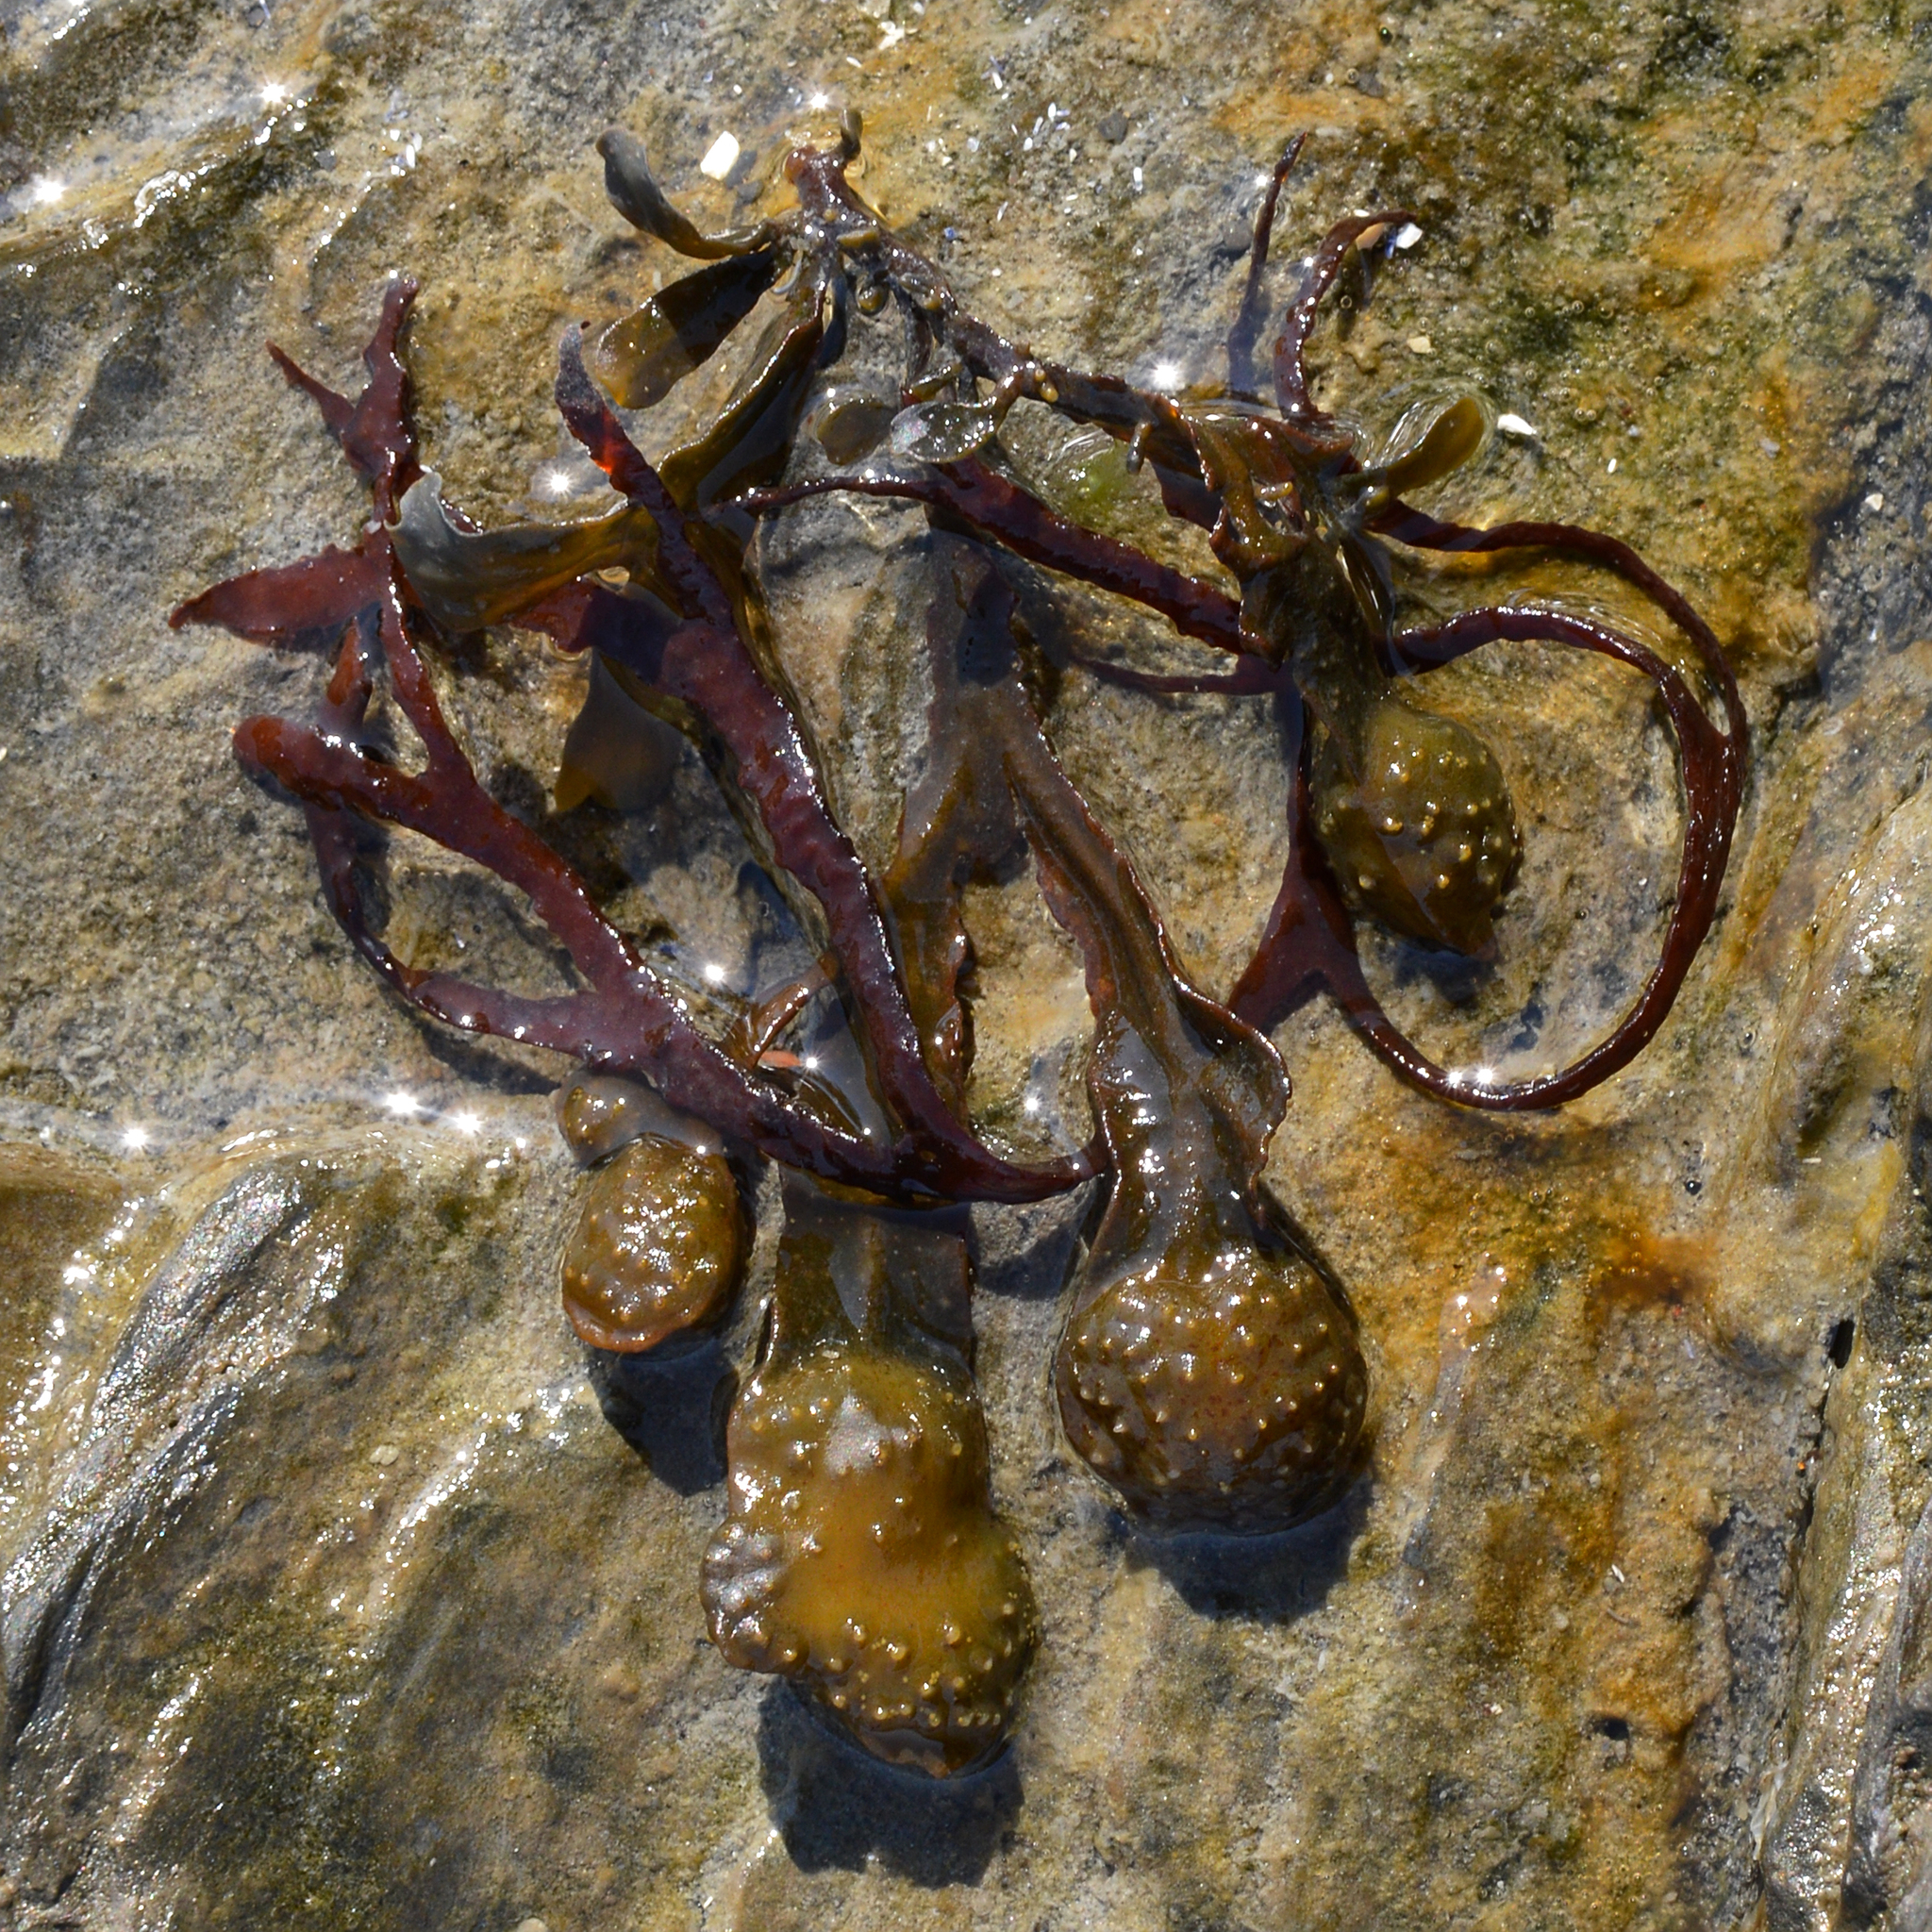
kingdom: Chromista
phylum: Ochrophyta
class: Phaeophyceae
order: Fucales
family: Fucaceae
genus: Fucus
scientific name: Fucus spiralis
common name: Spiral wrack
